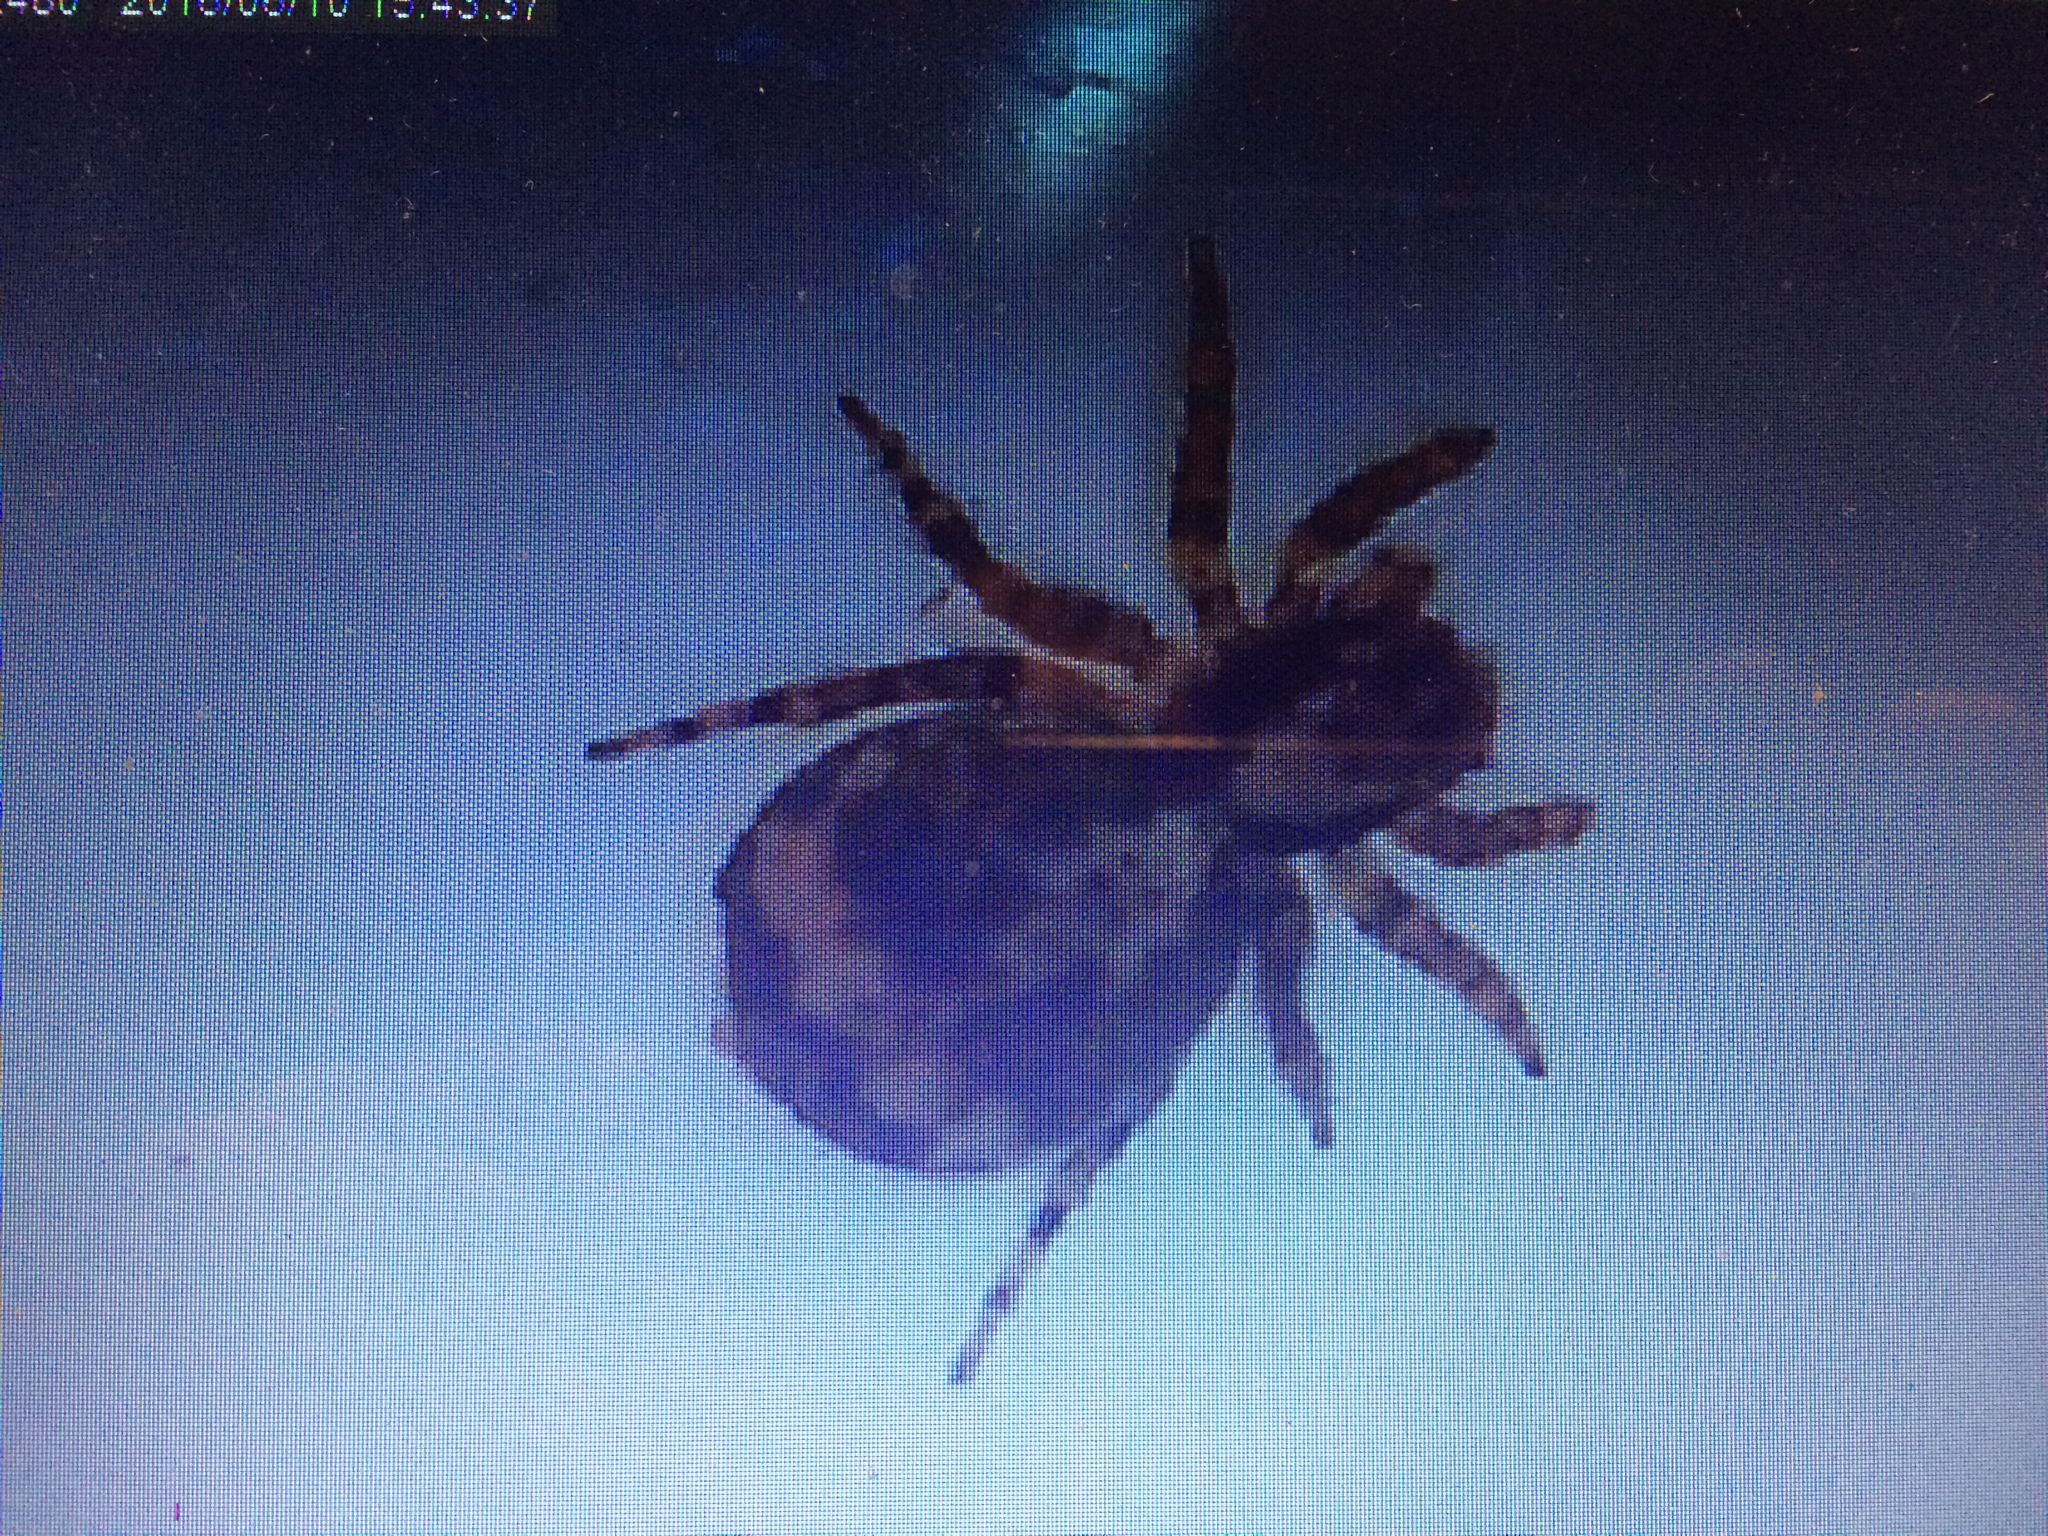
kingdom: Animalia
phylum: Arthropoda
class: Arachnida
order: Araneae
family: Salticidae
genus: Naphrys
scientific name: Naphrys pulex
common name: Flea jumping spider
